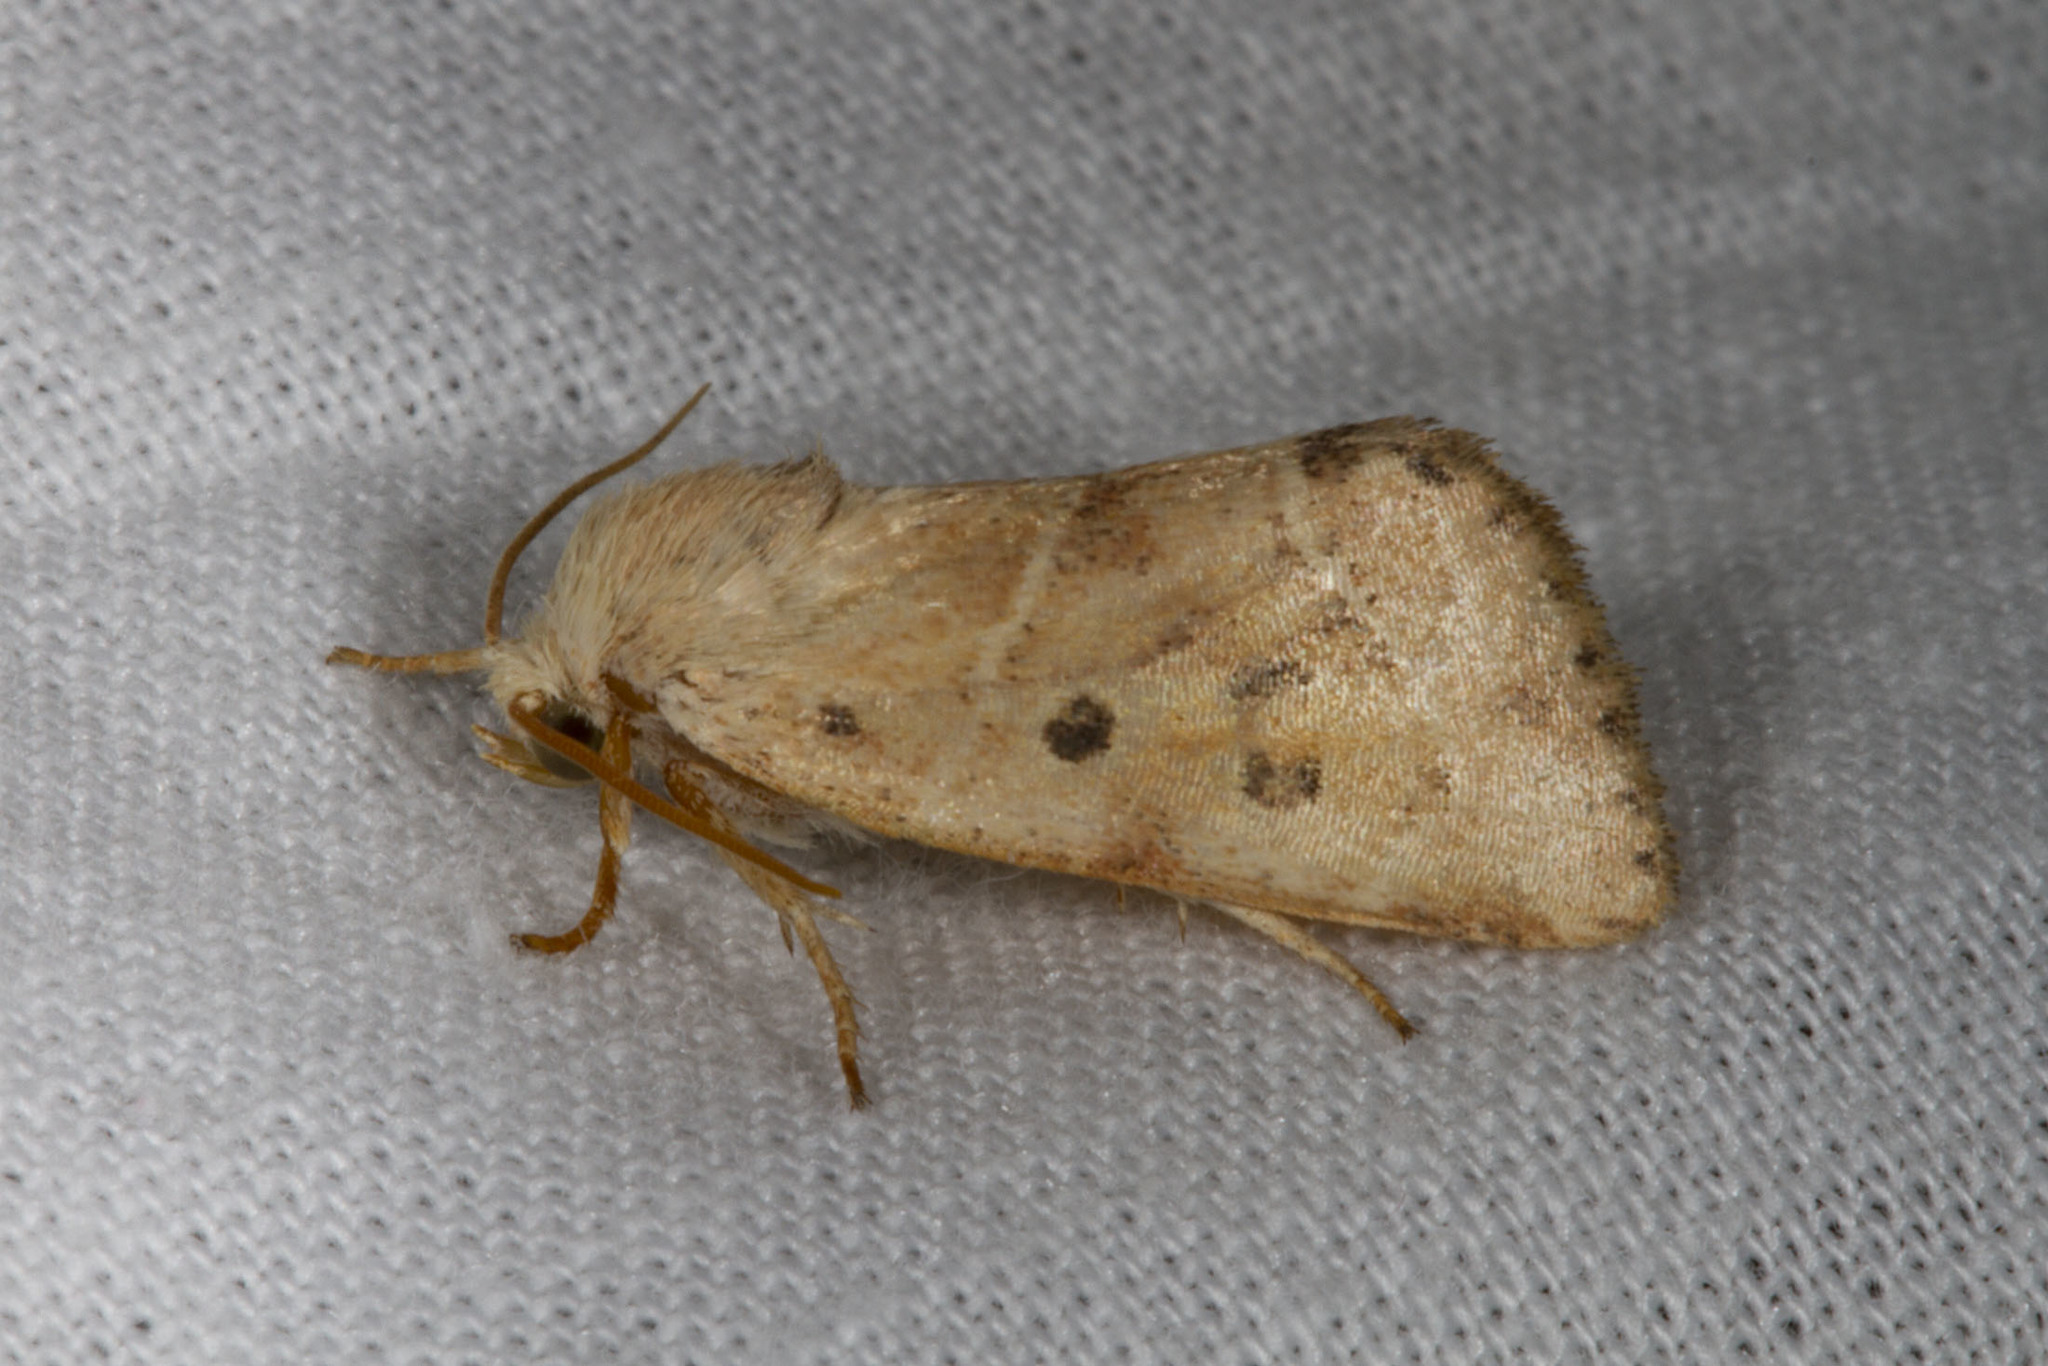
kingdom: Animalia
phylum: Arthropoda
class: Insecta
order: Lepidoptera
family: Noctuidae
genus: Cosmia
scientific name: Cosmia calami
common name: American dun-bar moth
